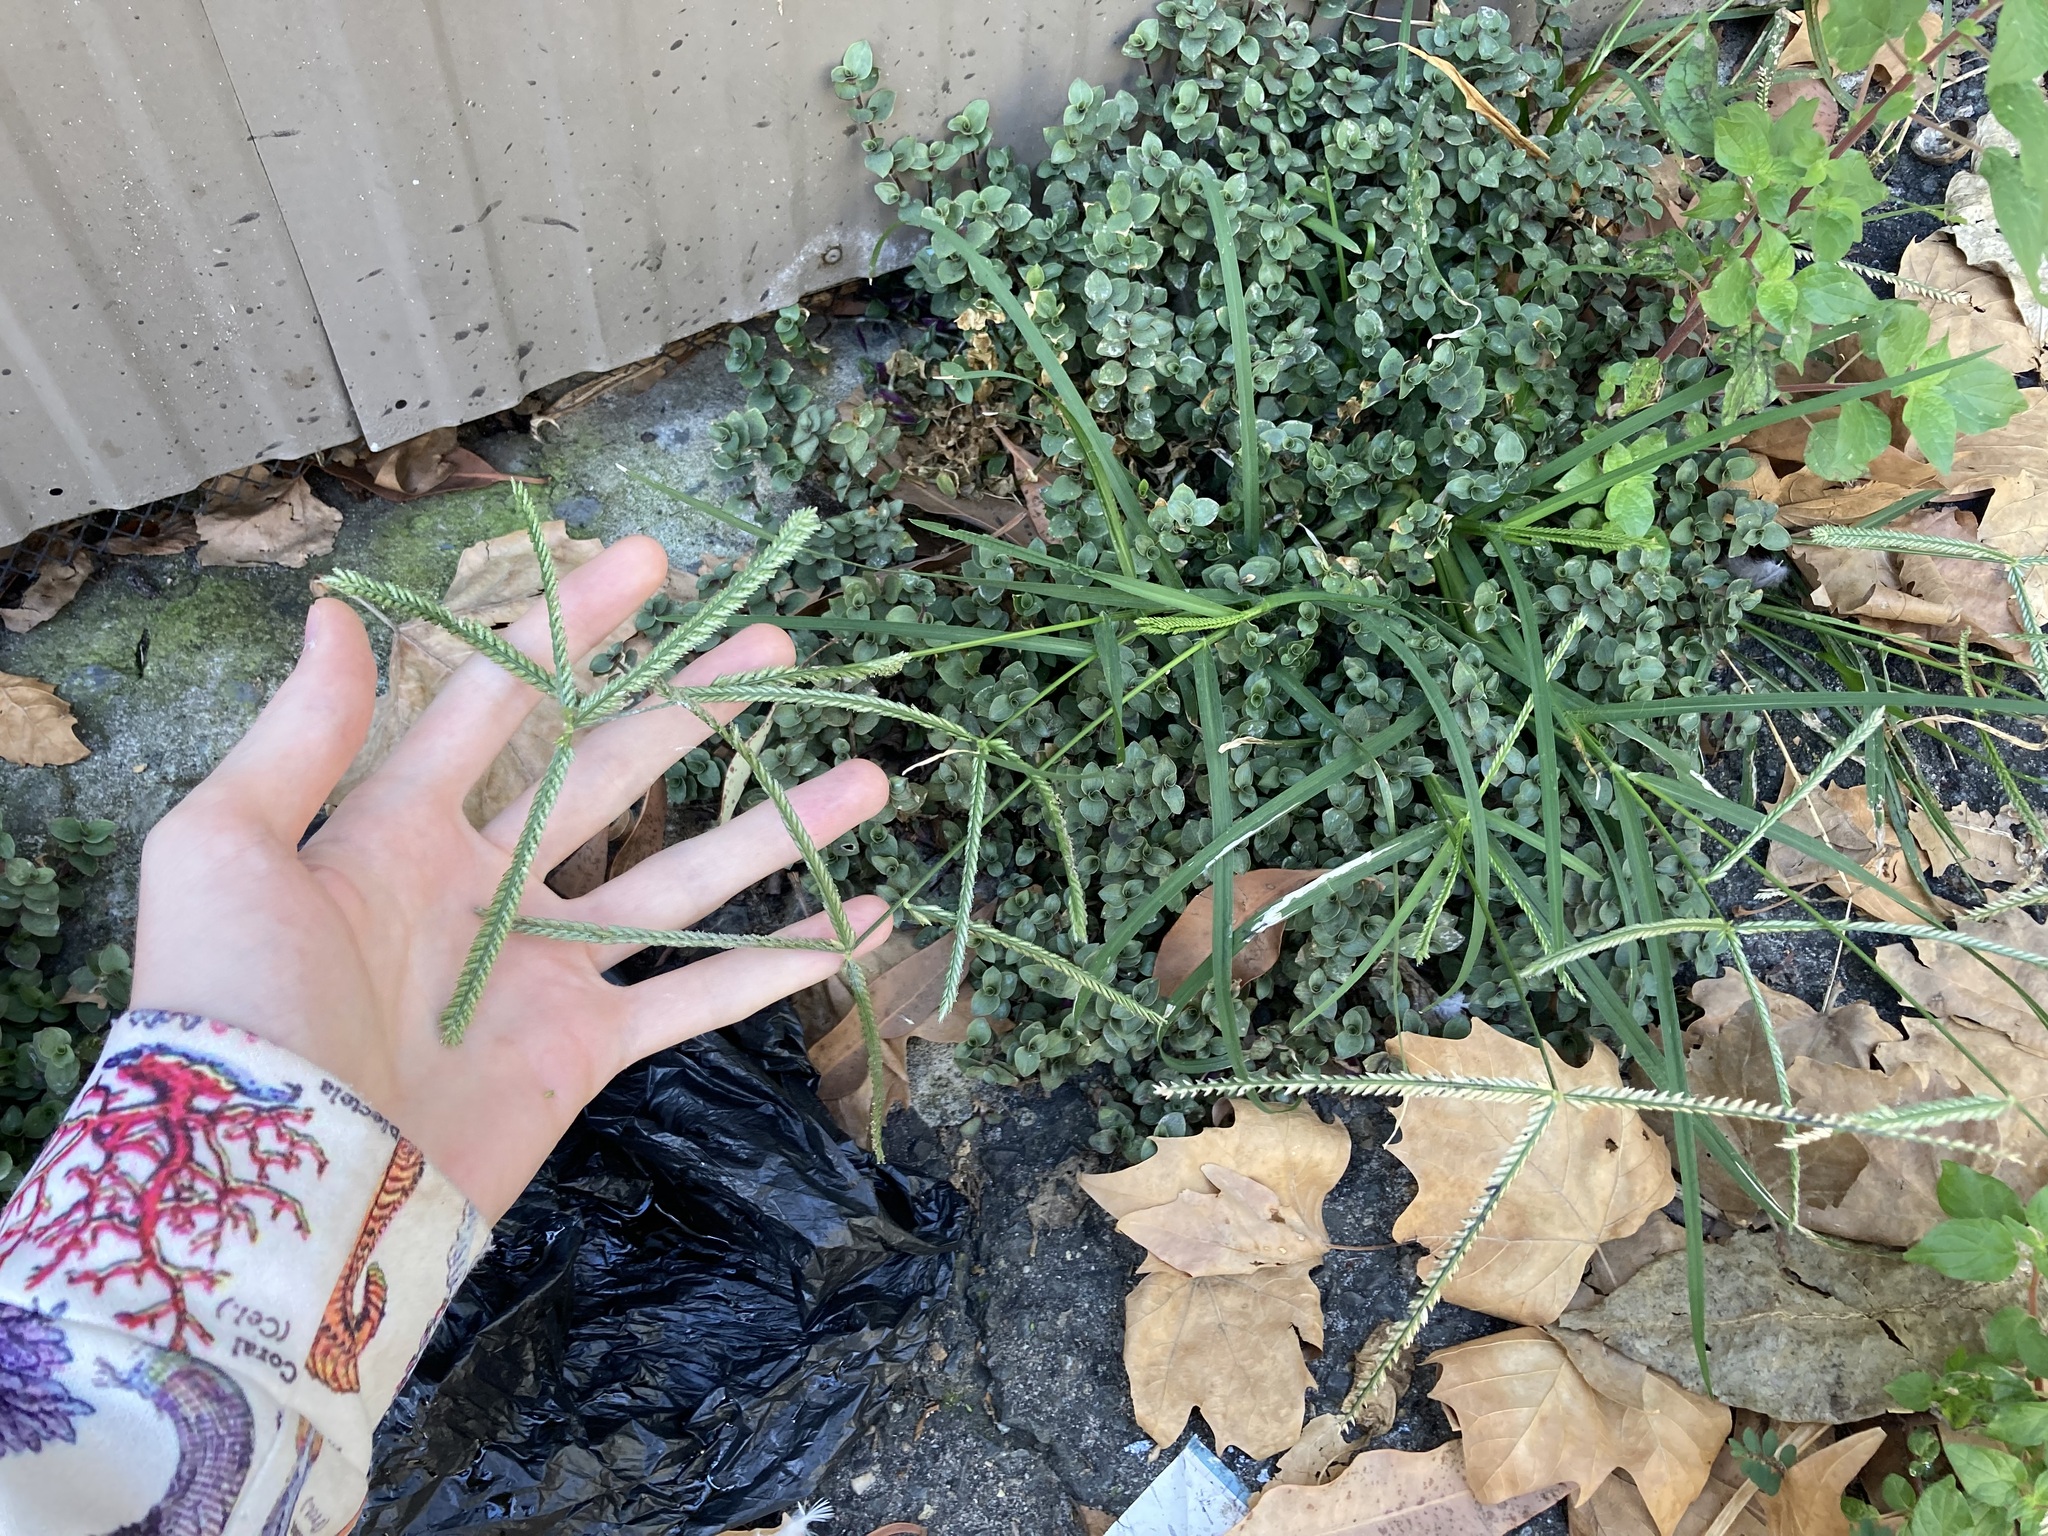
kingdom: Plantae
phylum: Tracheophyta
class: Liliopsida
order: Poales
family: Poaceae
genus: Eleusine
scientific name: Eleusine indica
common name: Yard-grass
